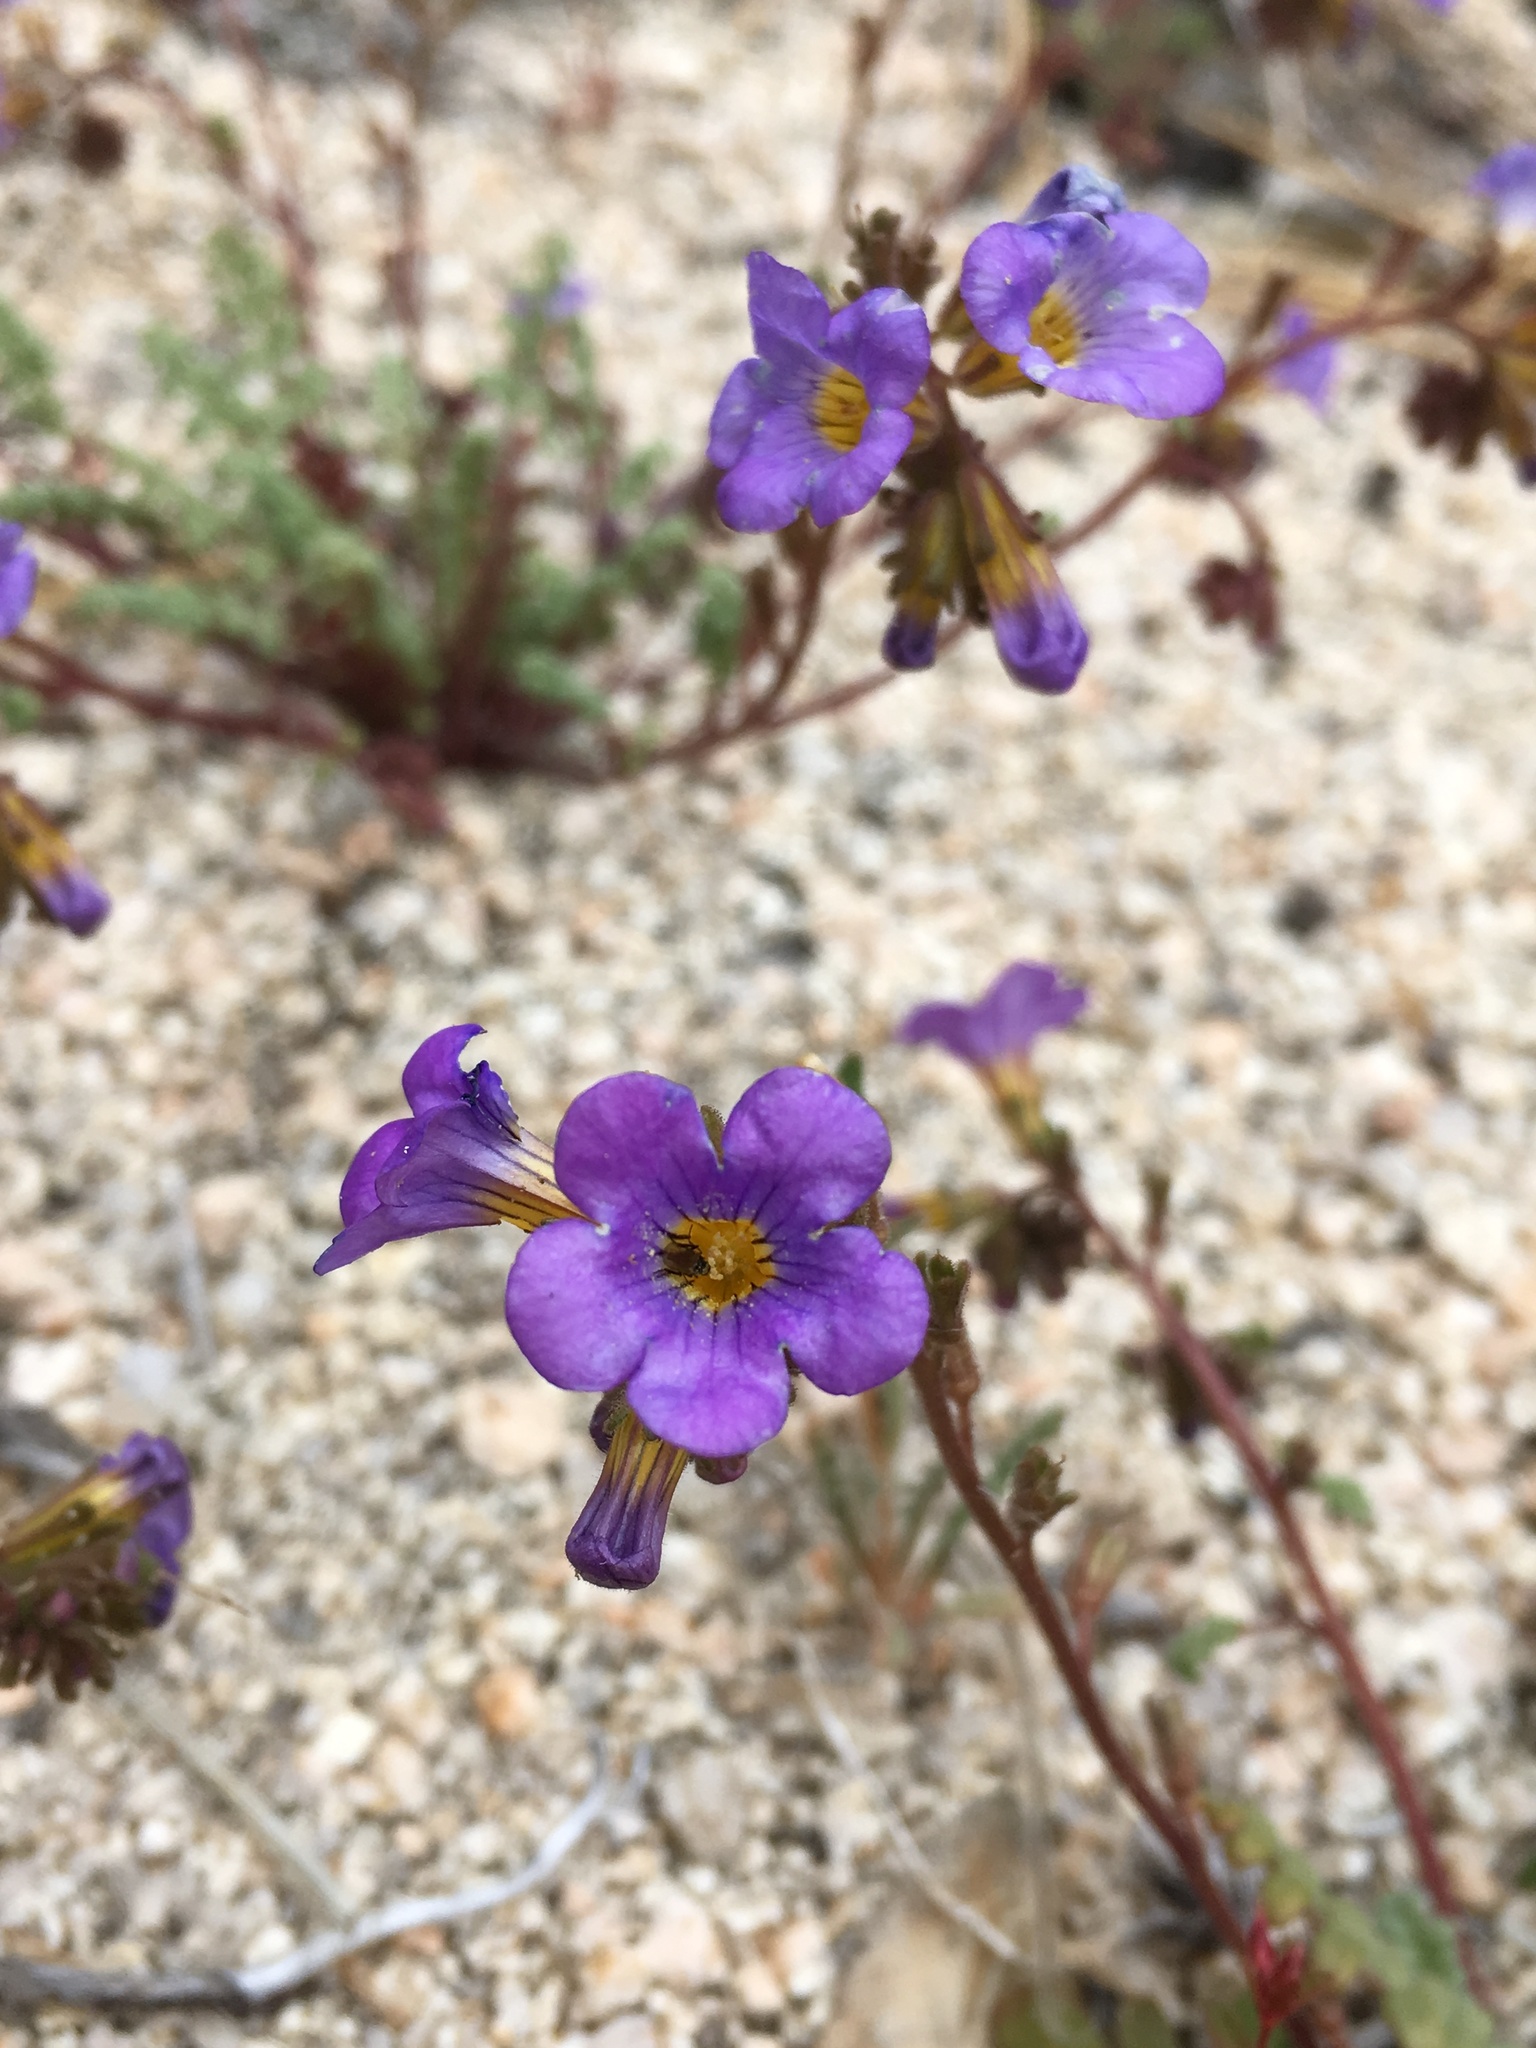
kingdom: Plantae
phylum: Tracheophyta
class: Magnoliopsida
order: Boraginales
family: Hydrophyllaceae
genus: Phacelia
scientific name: Phacelia fremontii
